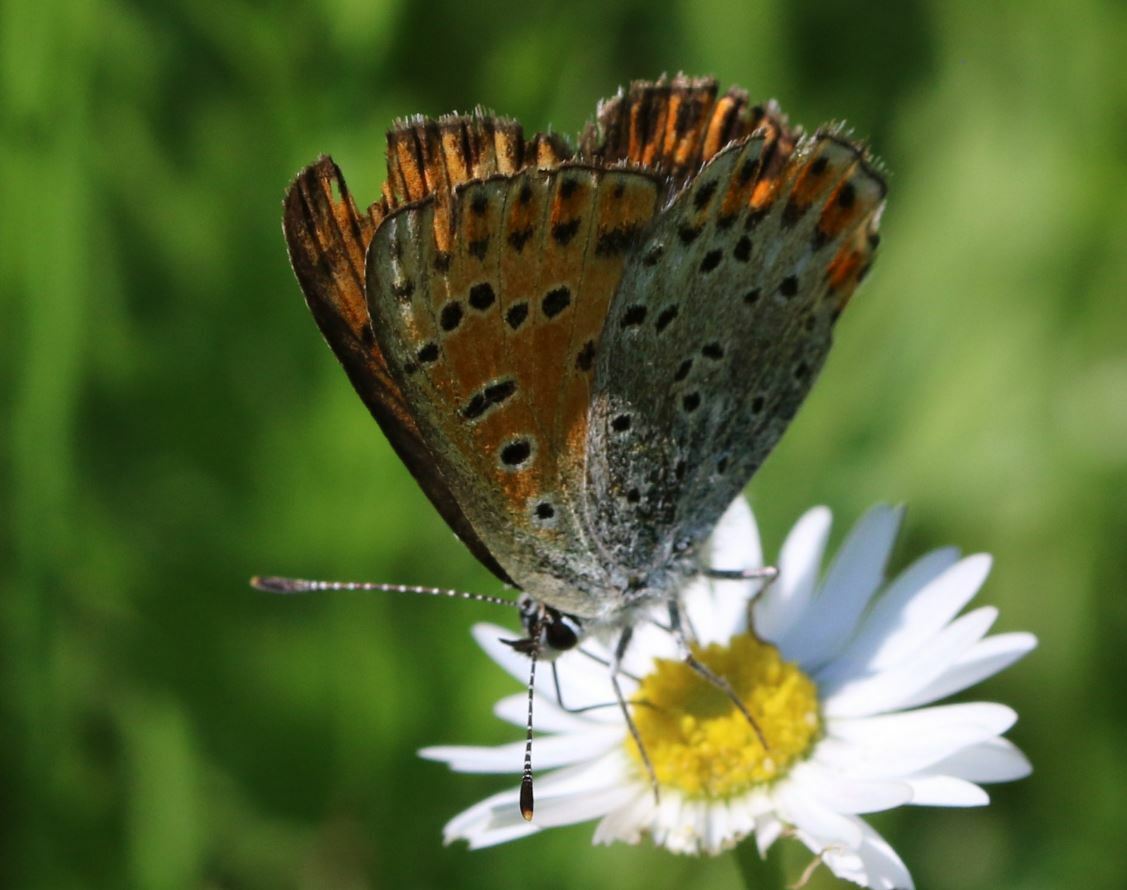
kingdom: Animalia
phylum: Arthropoda
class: Insecta
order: Lepidoptera
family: Lycaenidae
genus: Loweia
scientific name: Loweia tityrus
